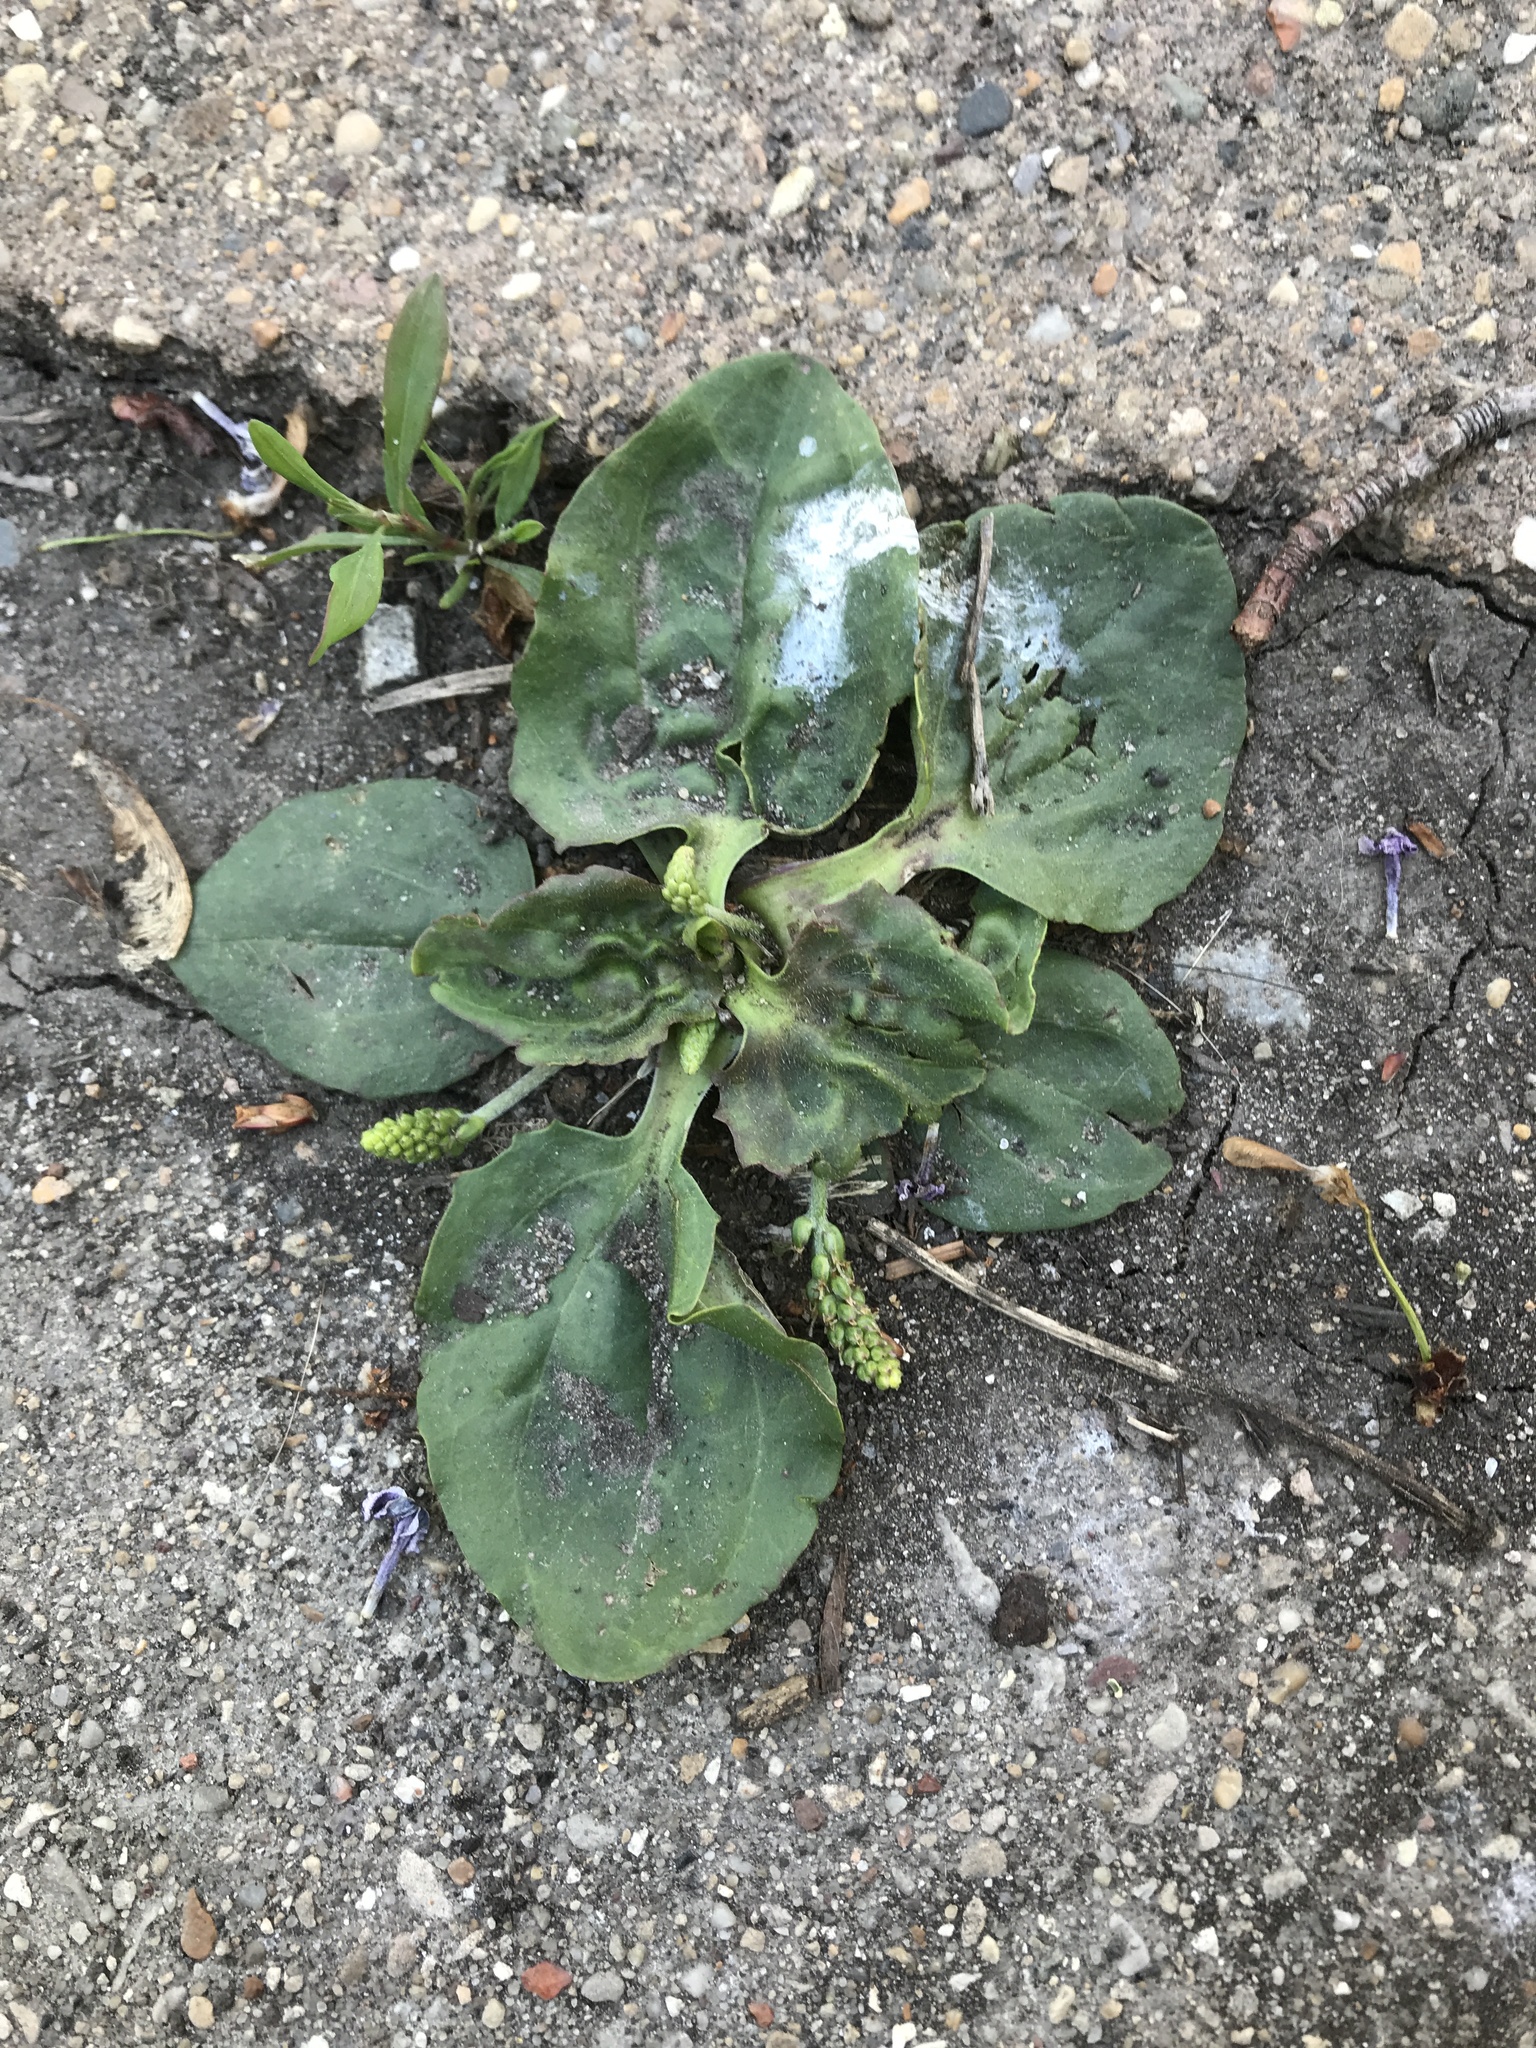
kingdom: Plantae
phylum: Tracheophyta
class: Magnoliopsida
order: Lamiales
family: Plantaginaceae
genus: Plantago
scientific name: Plantago major
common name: Common plantain
